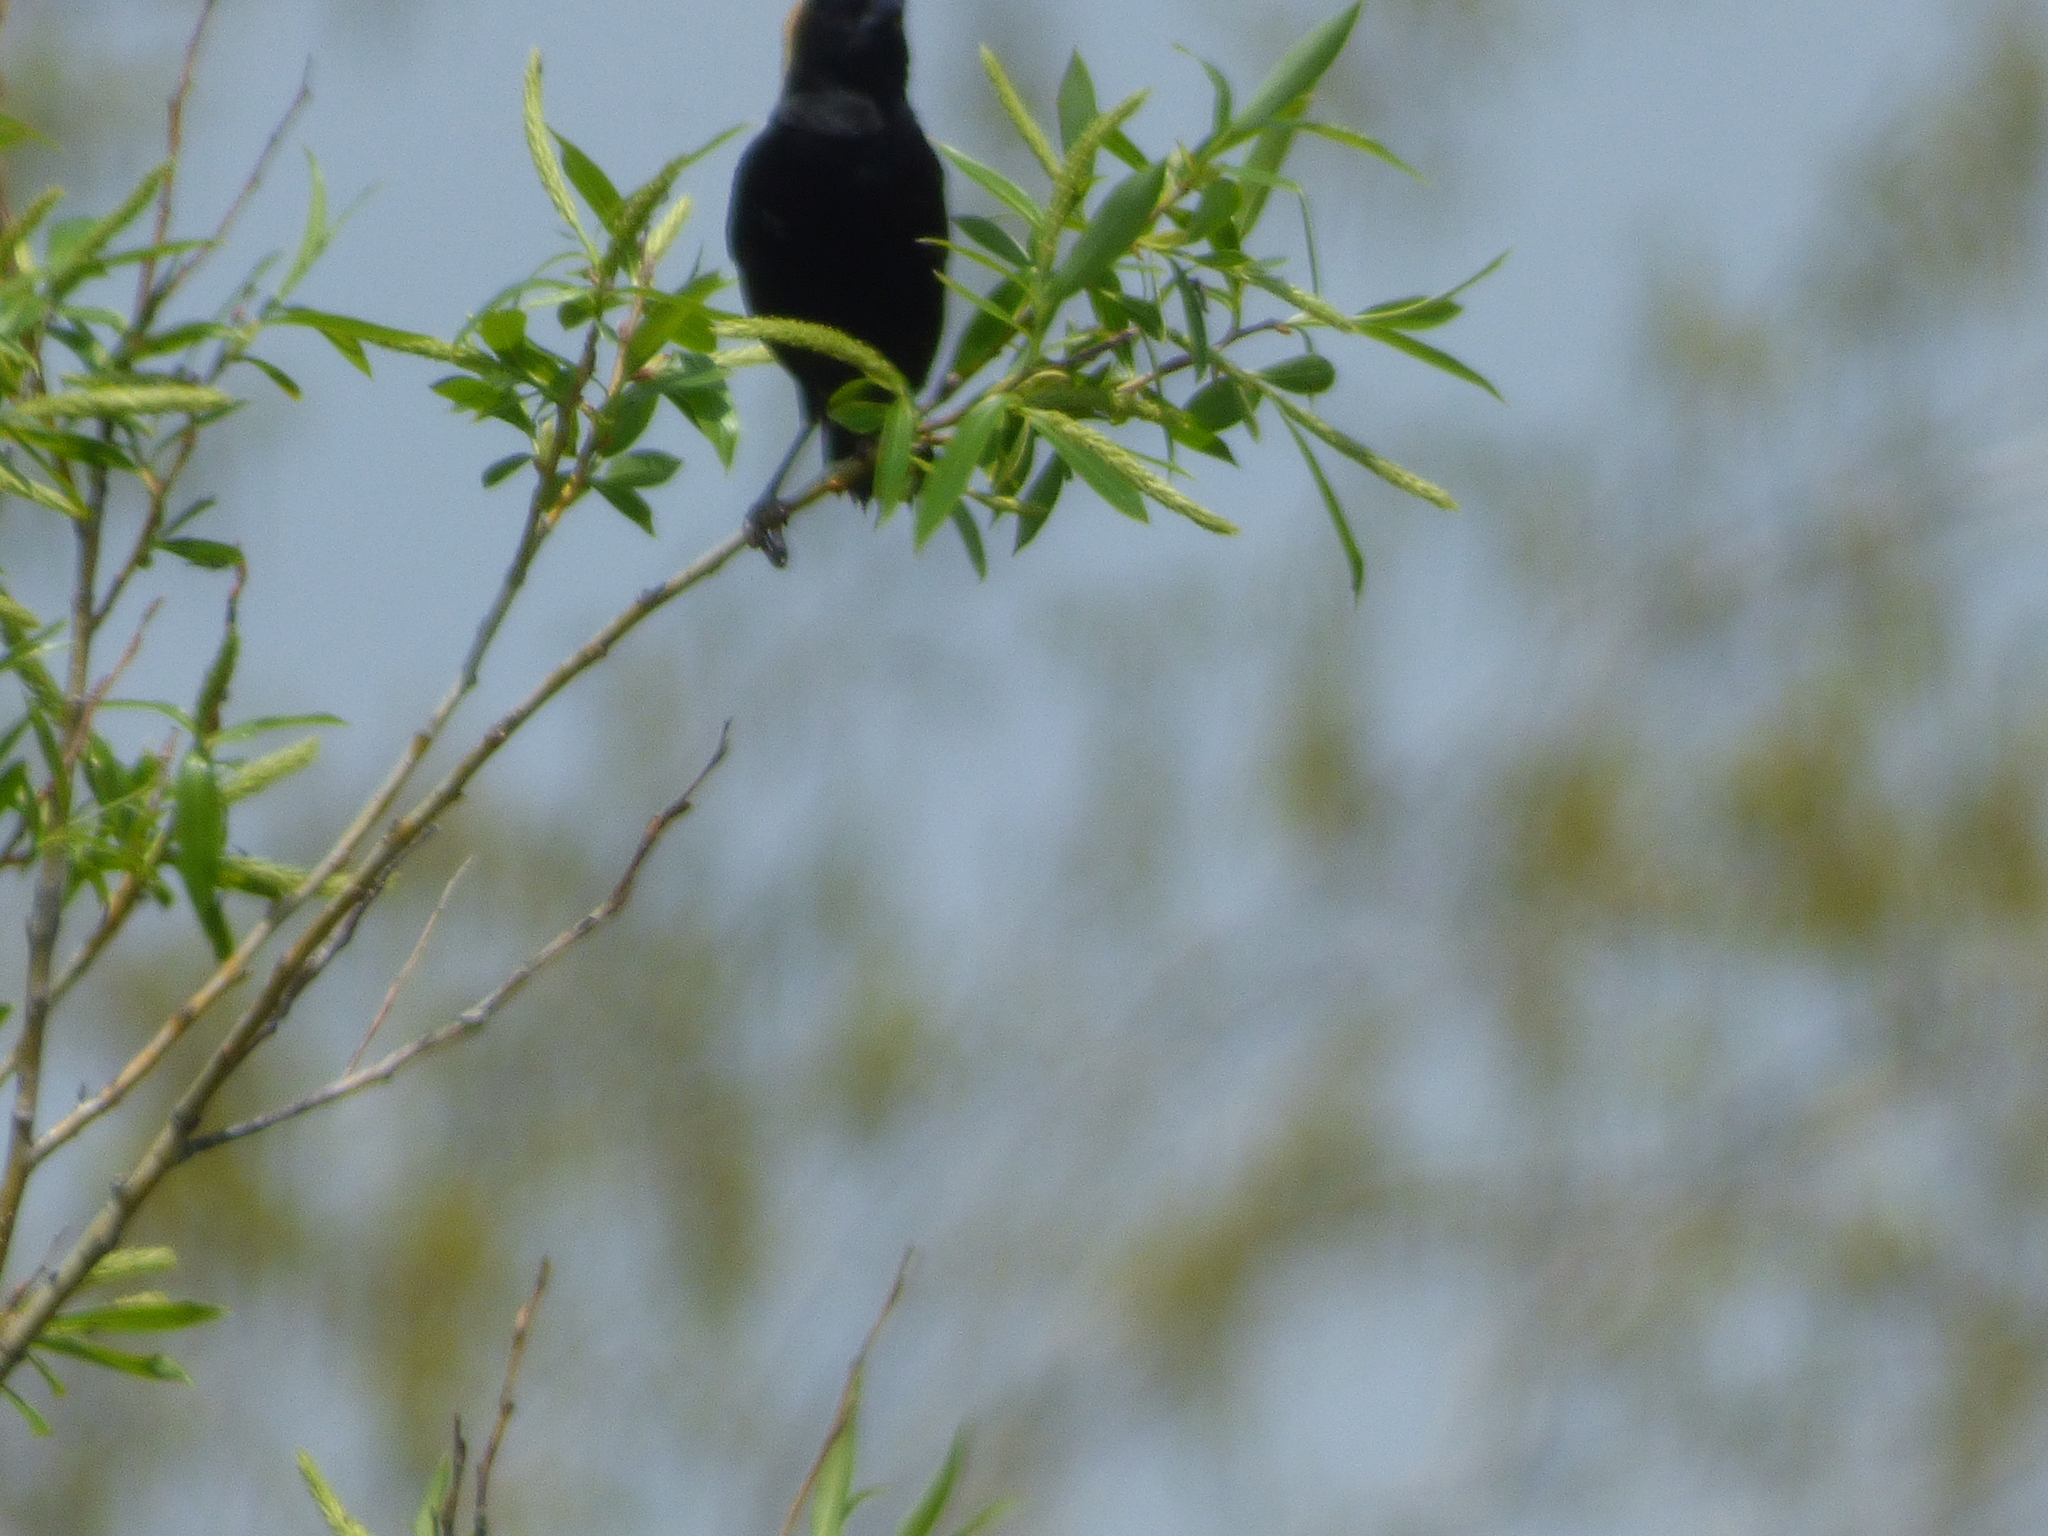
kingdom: Animalia
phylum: Chordata
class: Aves
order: Passeriformes
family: Icteridae
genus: Dolichonyx
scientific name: Dolichonyx oryzivorus
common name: Bobolink
